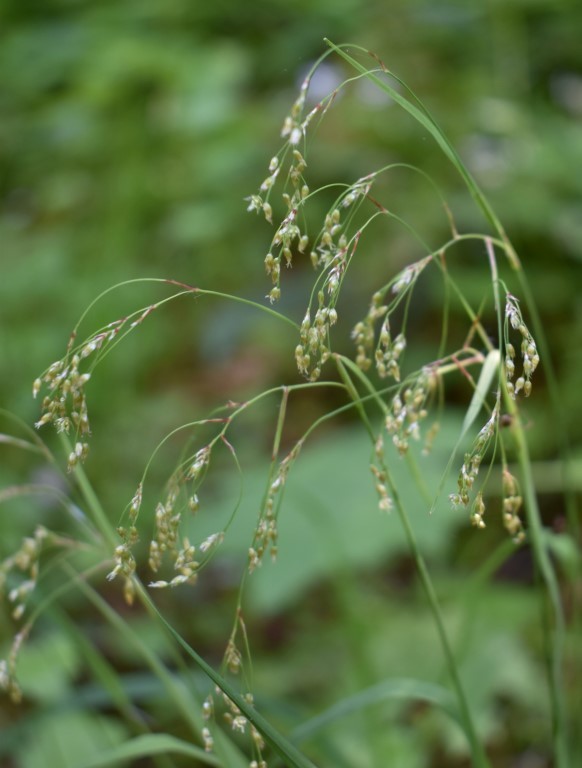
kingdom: Plantae
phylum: Tracheophyta
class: Liliopsida
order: Poales
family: Juncaceae
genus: Luzula
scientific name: Luzula parviflora
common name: Millet woodrush
